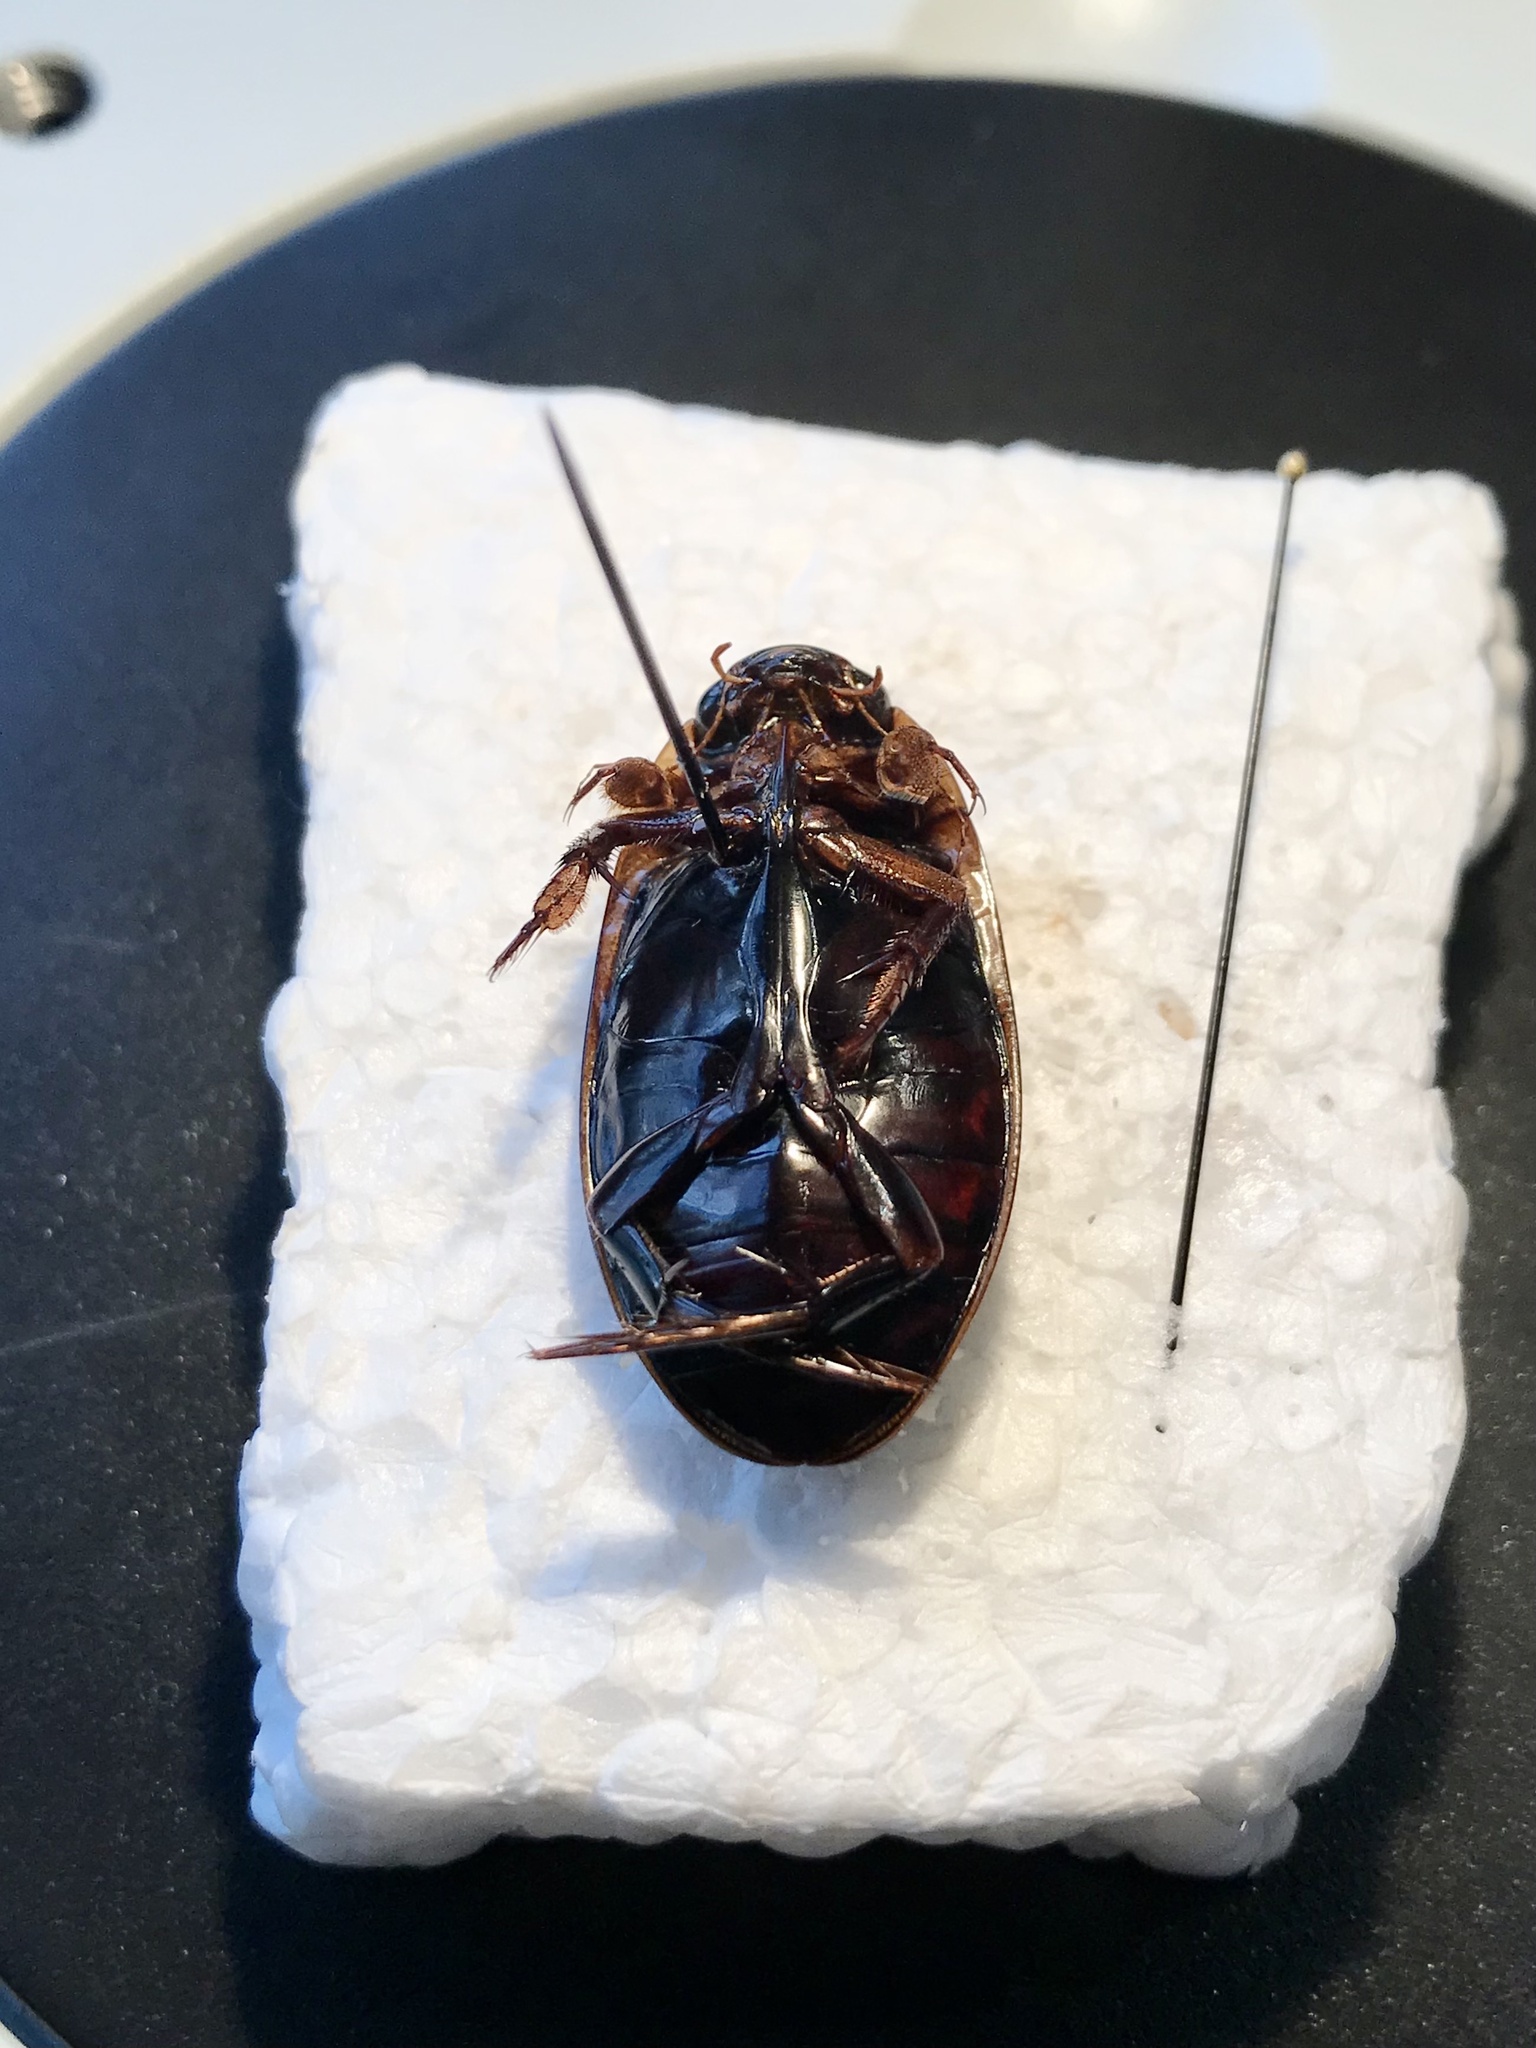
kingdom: Animalia
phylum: Arthropoda
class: Insecta
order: Coleoptera
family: Dytiscidae
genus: Dytiscus
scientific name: Dytiscus hybridus
